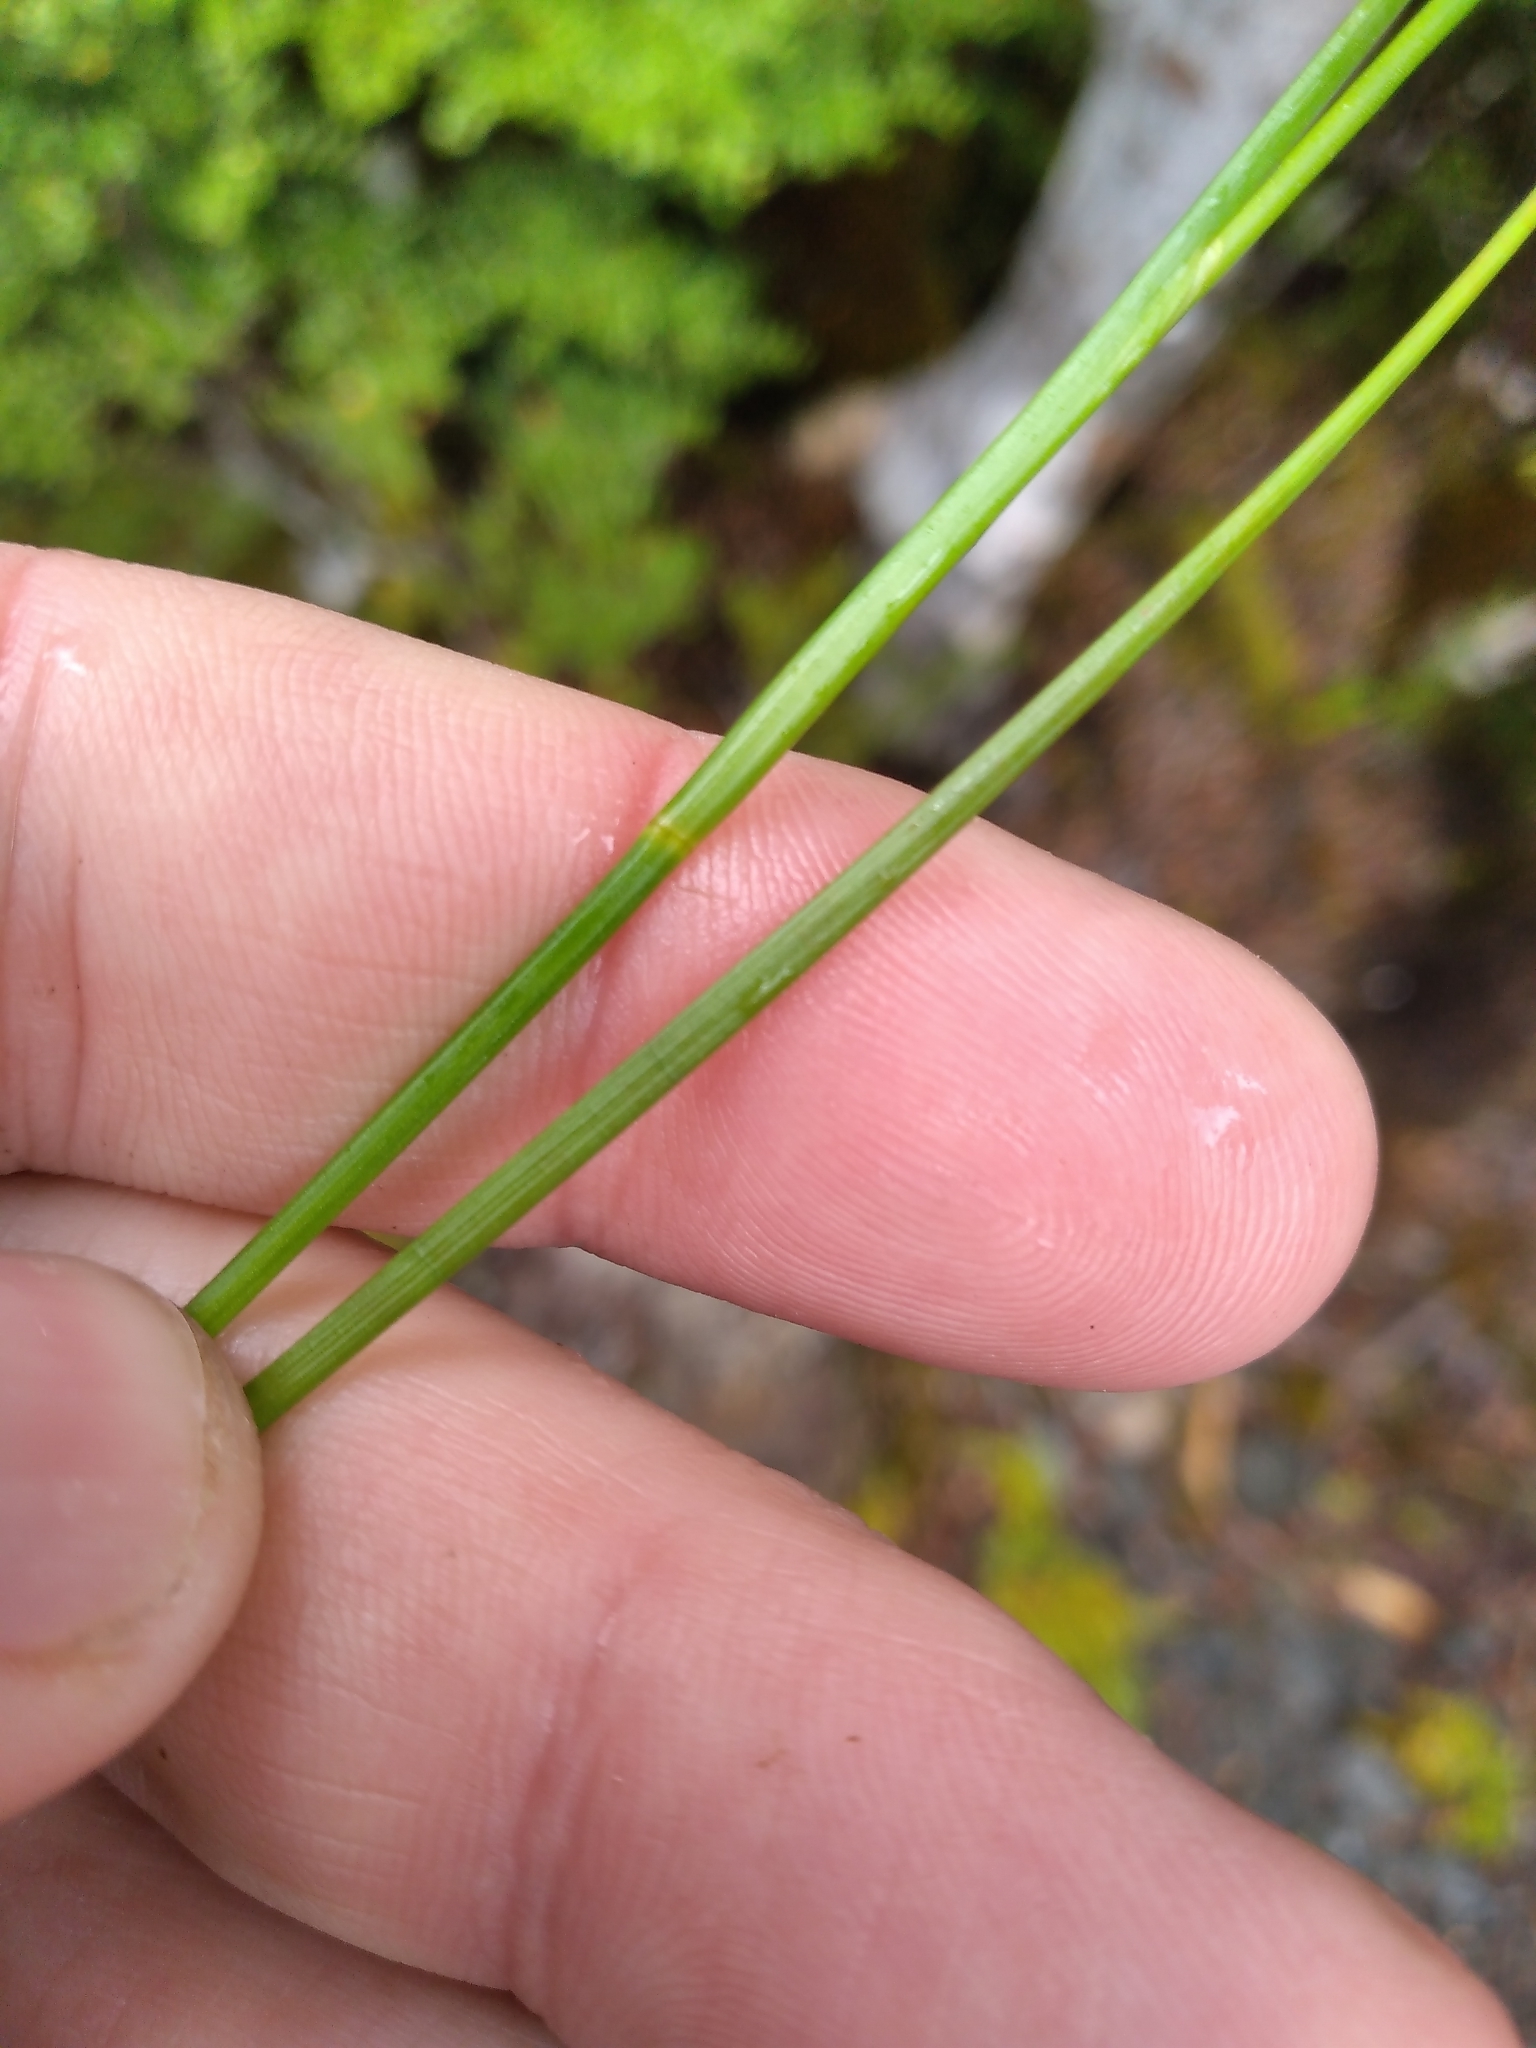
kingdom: Plantae
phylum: Tracheophyta
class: Liliopsida
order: Poales
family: Juncaceae
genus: Juncus
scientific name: Juncus articulatus
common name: Jointed rush
